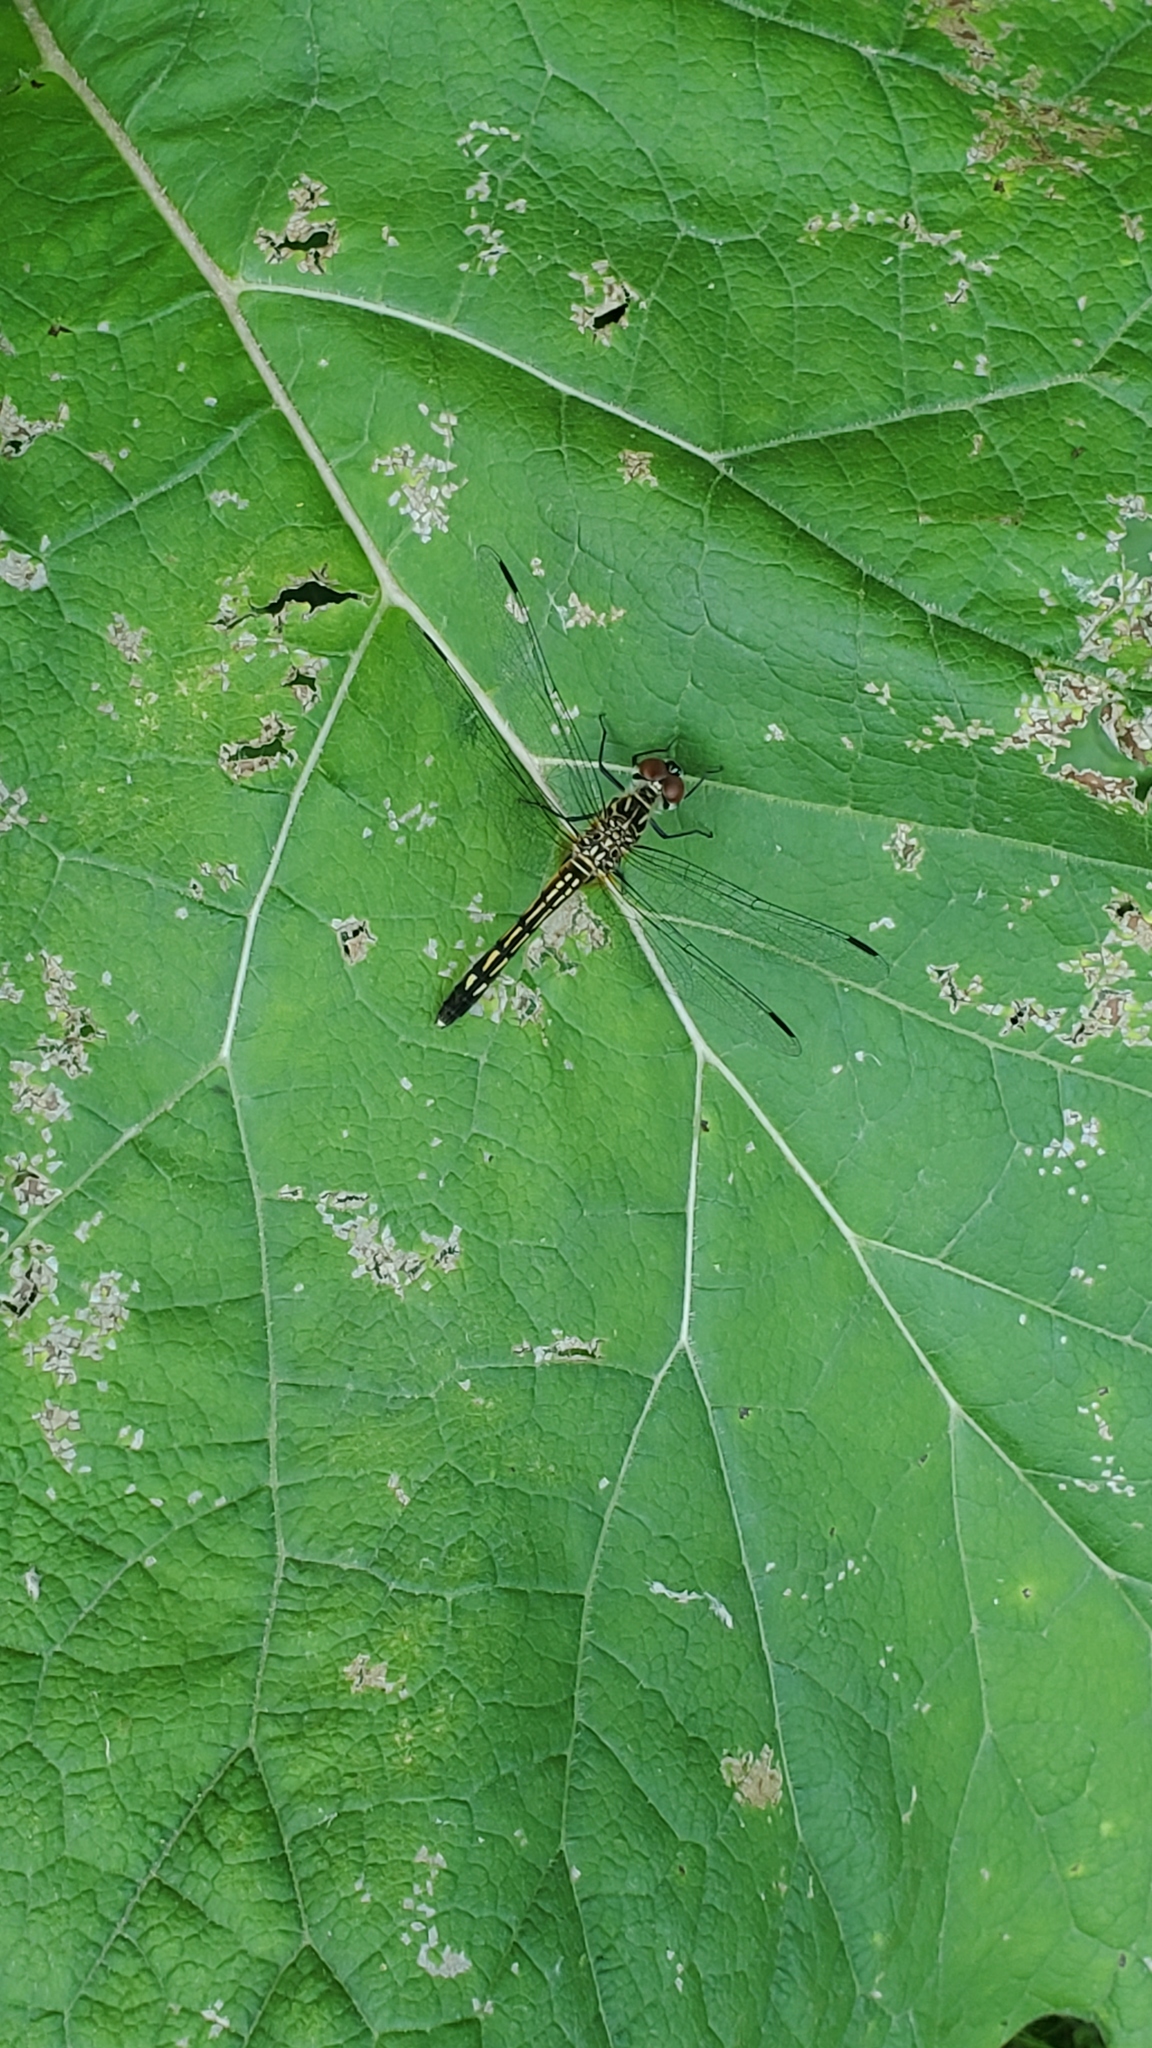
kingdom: Animalia
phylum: Arthropoda
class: Insecta
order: Odonata
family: Libellulidae
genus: Pachydiplax
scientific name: Pachydiplax longipennis
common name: Blue dasher
